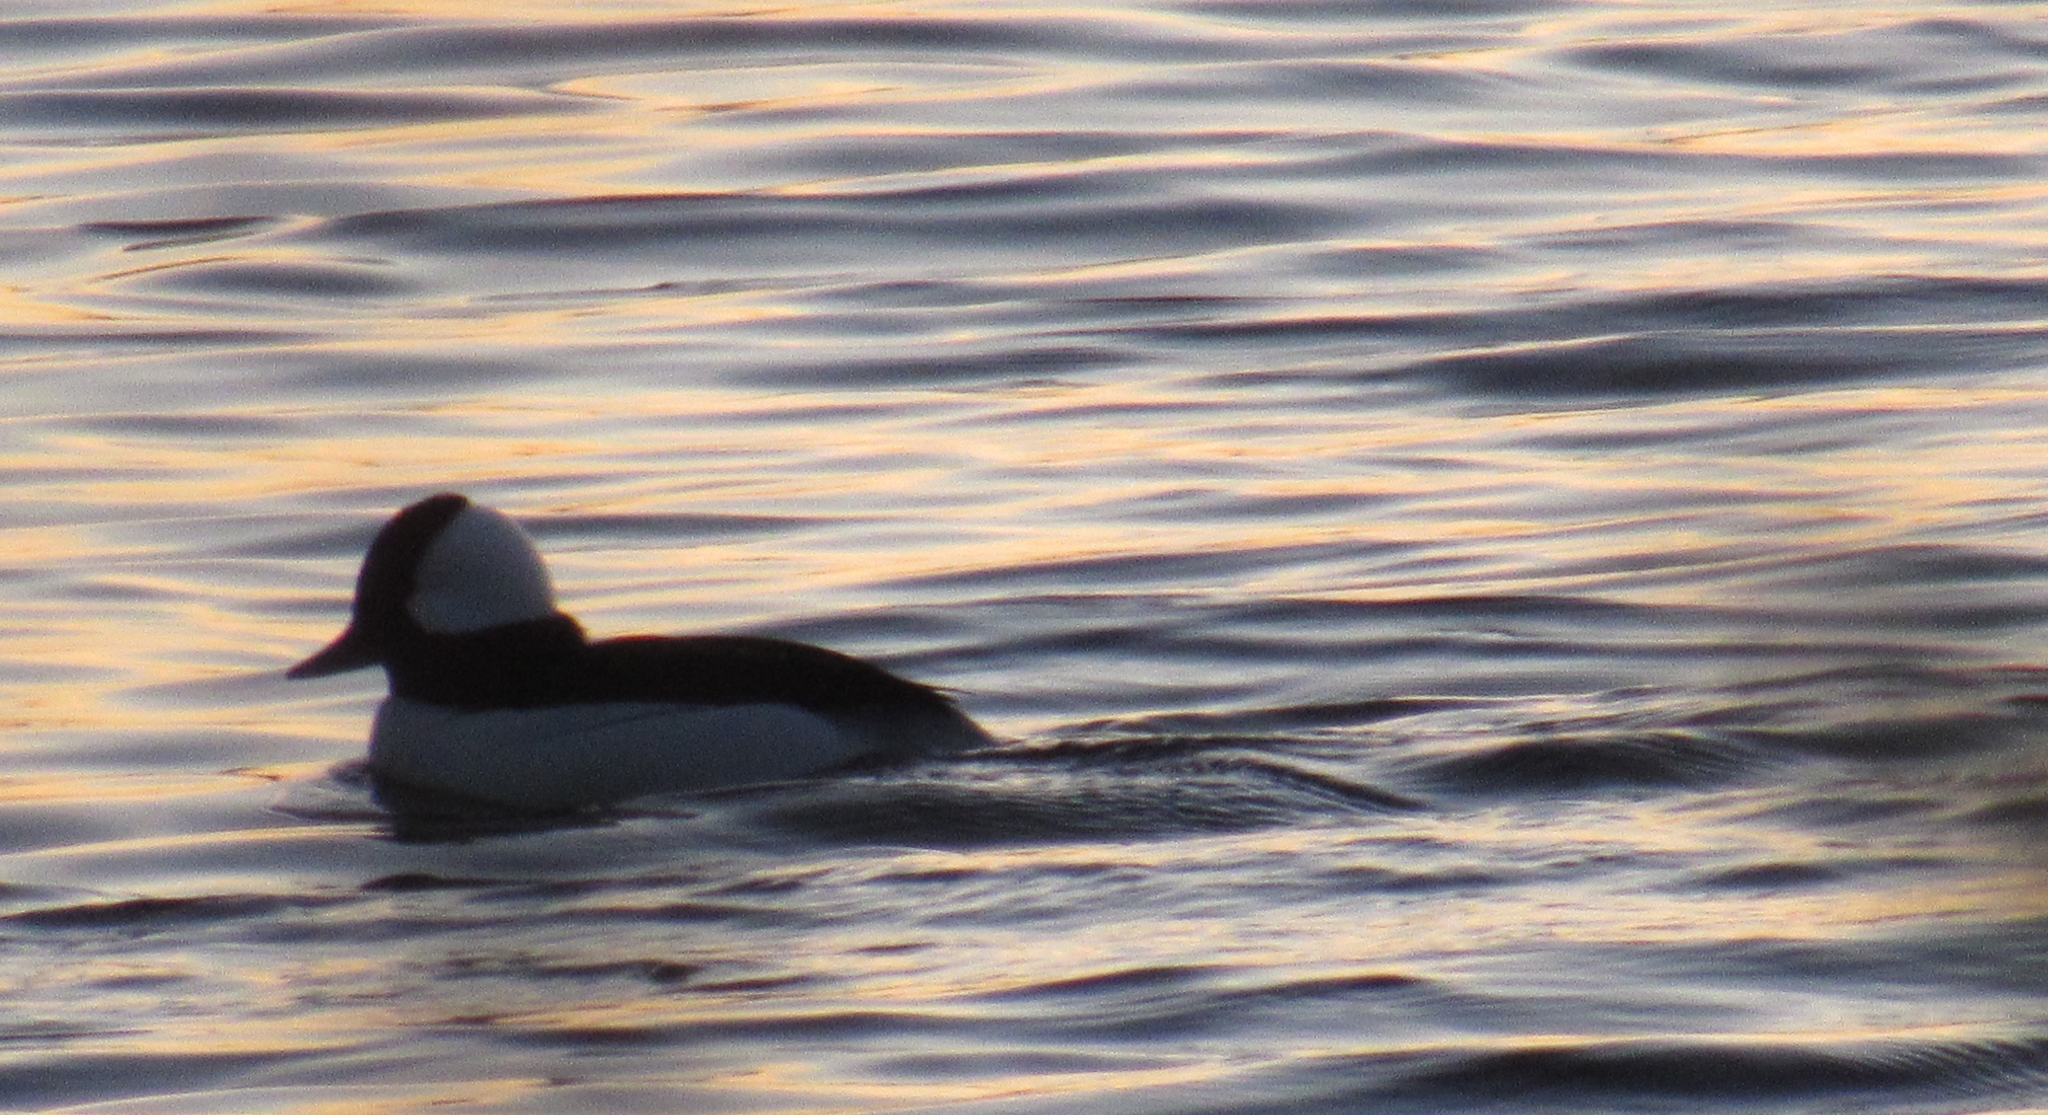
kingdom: Animalia
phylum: Chordata
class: Aves
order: Anseriformes
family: Anatidae
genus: Bucephala
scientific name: Bucephala albeola
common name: Bufflehead
